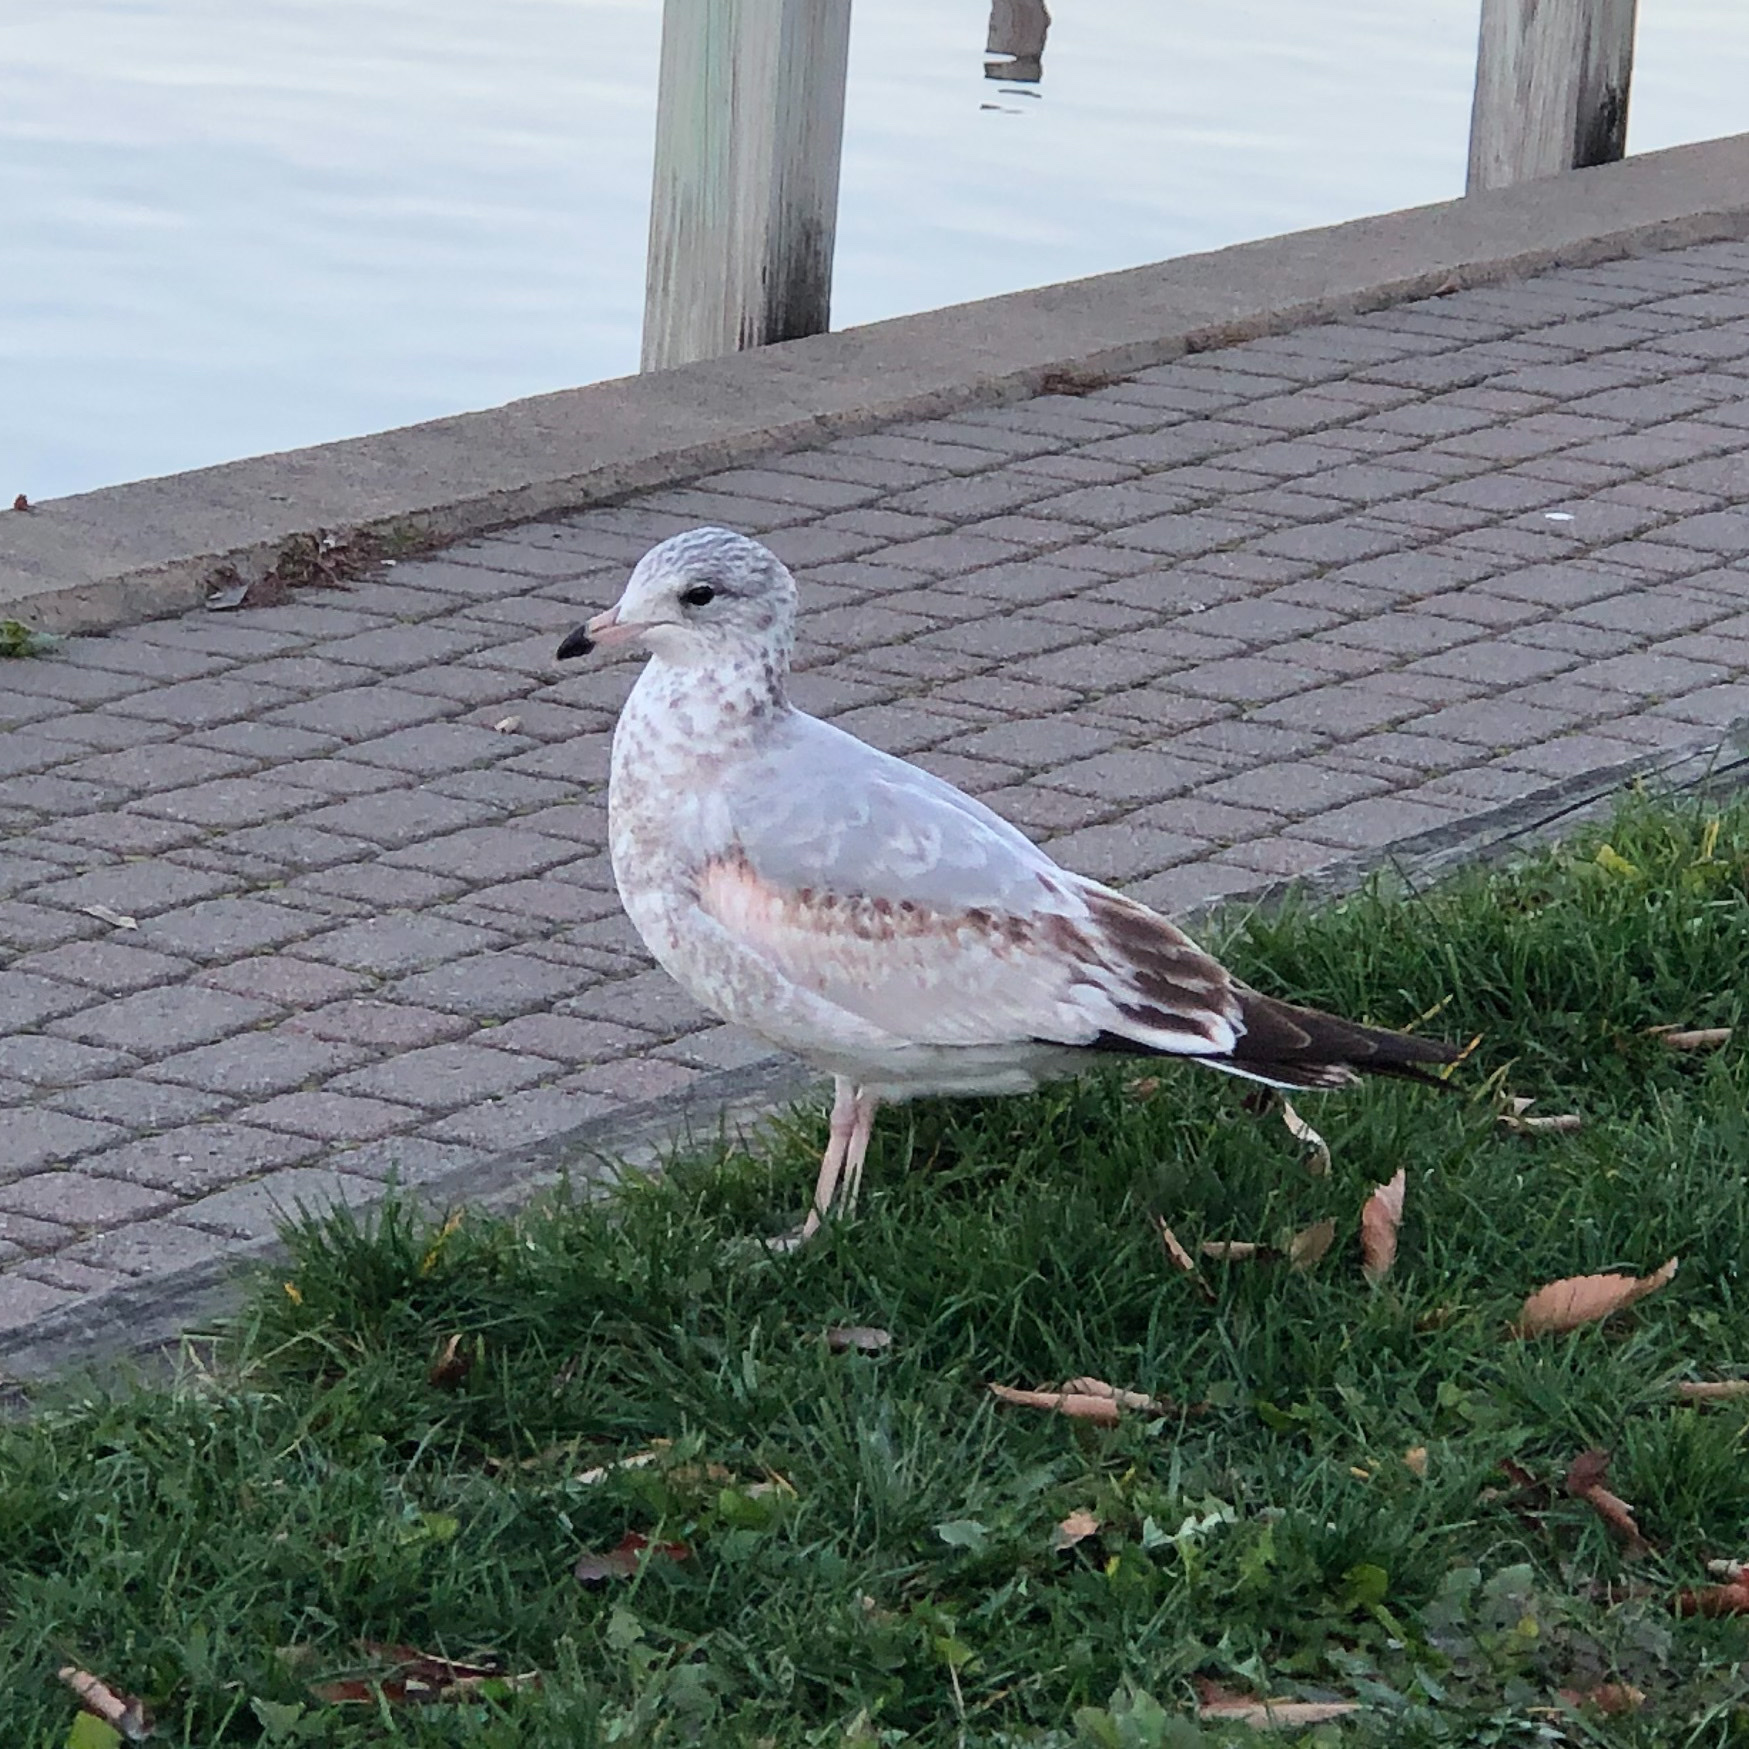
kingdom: Animalia
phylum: Chordata
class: Aves
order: Charadriiformes
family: Laridae
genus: Larus
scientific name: Larus delawarensis
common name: Ring-billed gull
